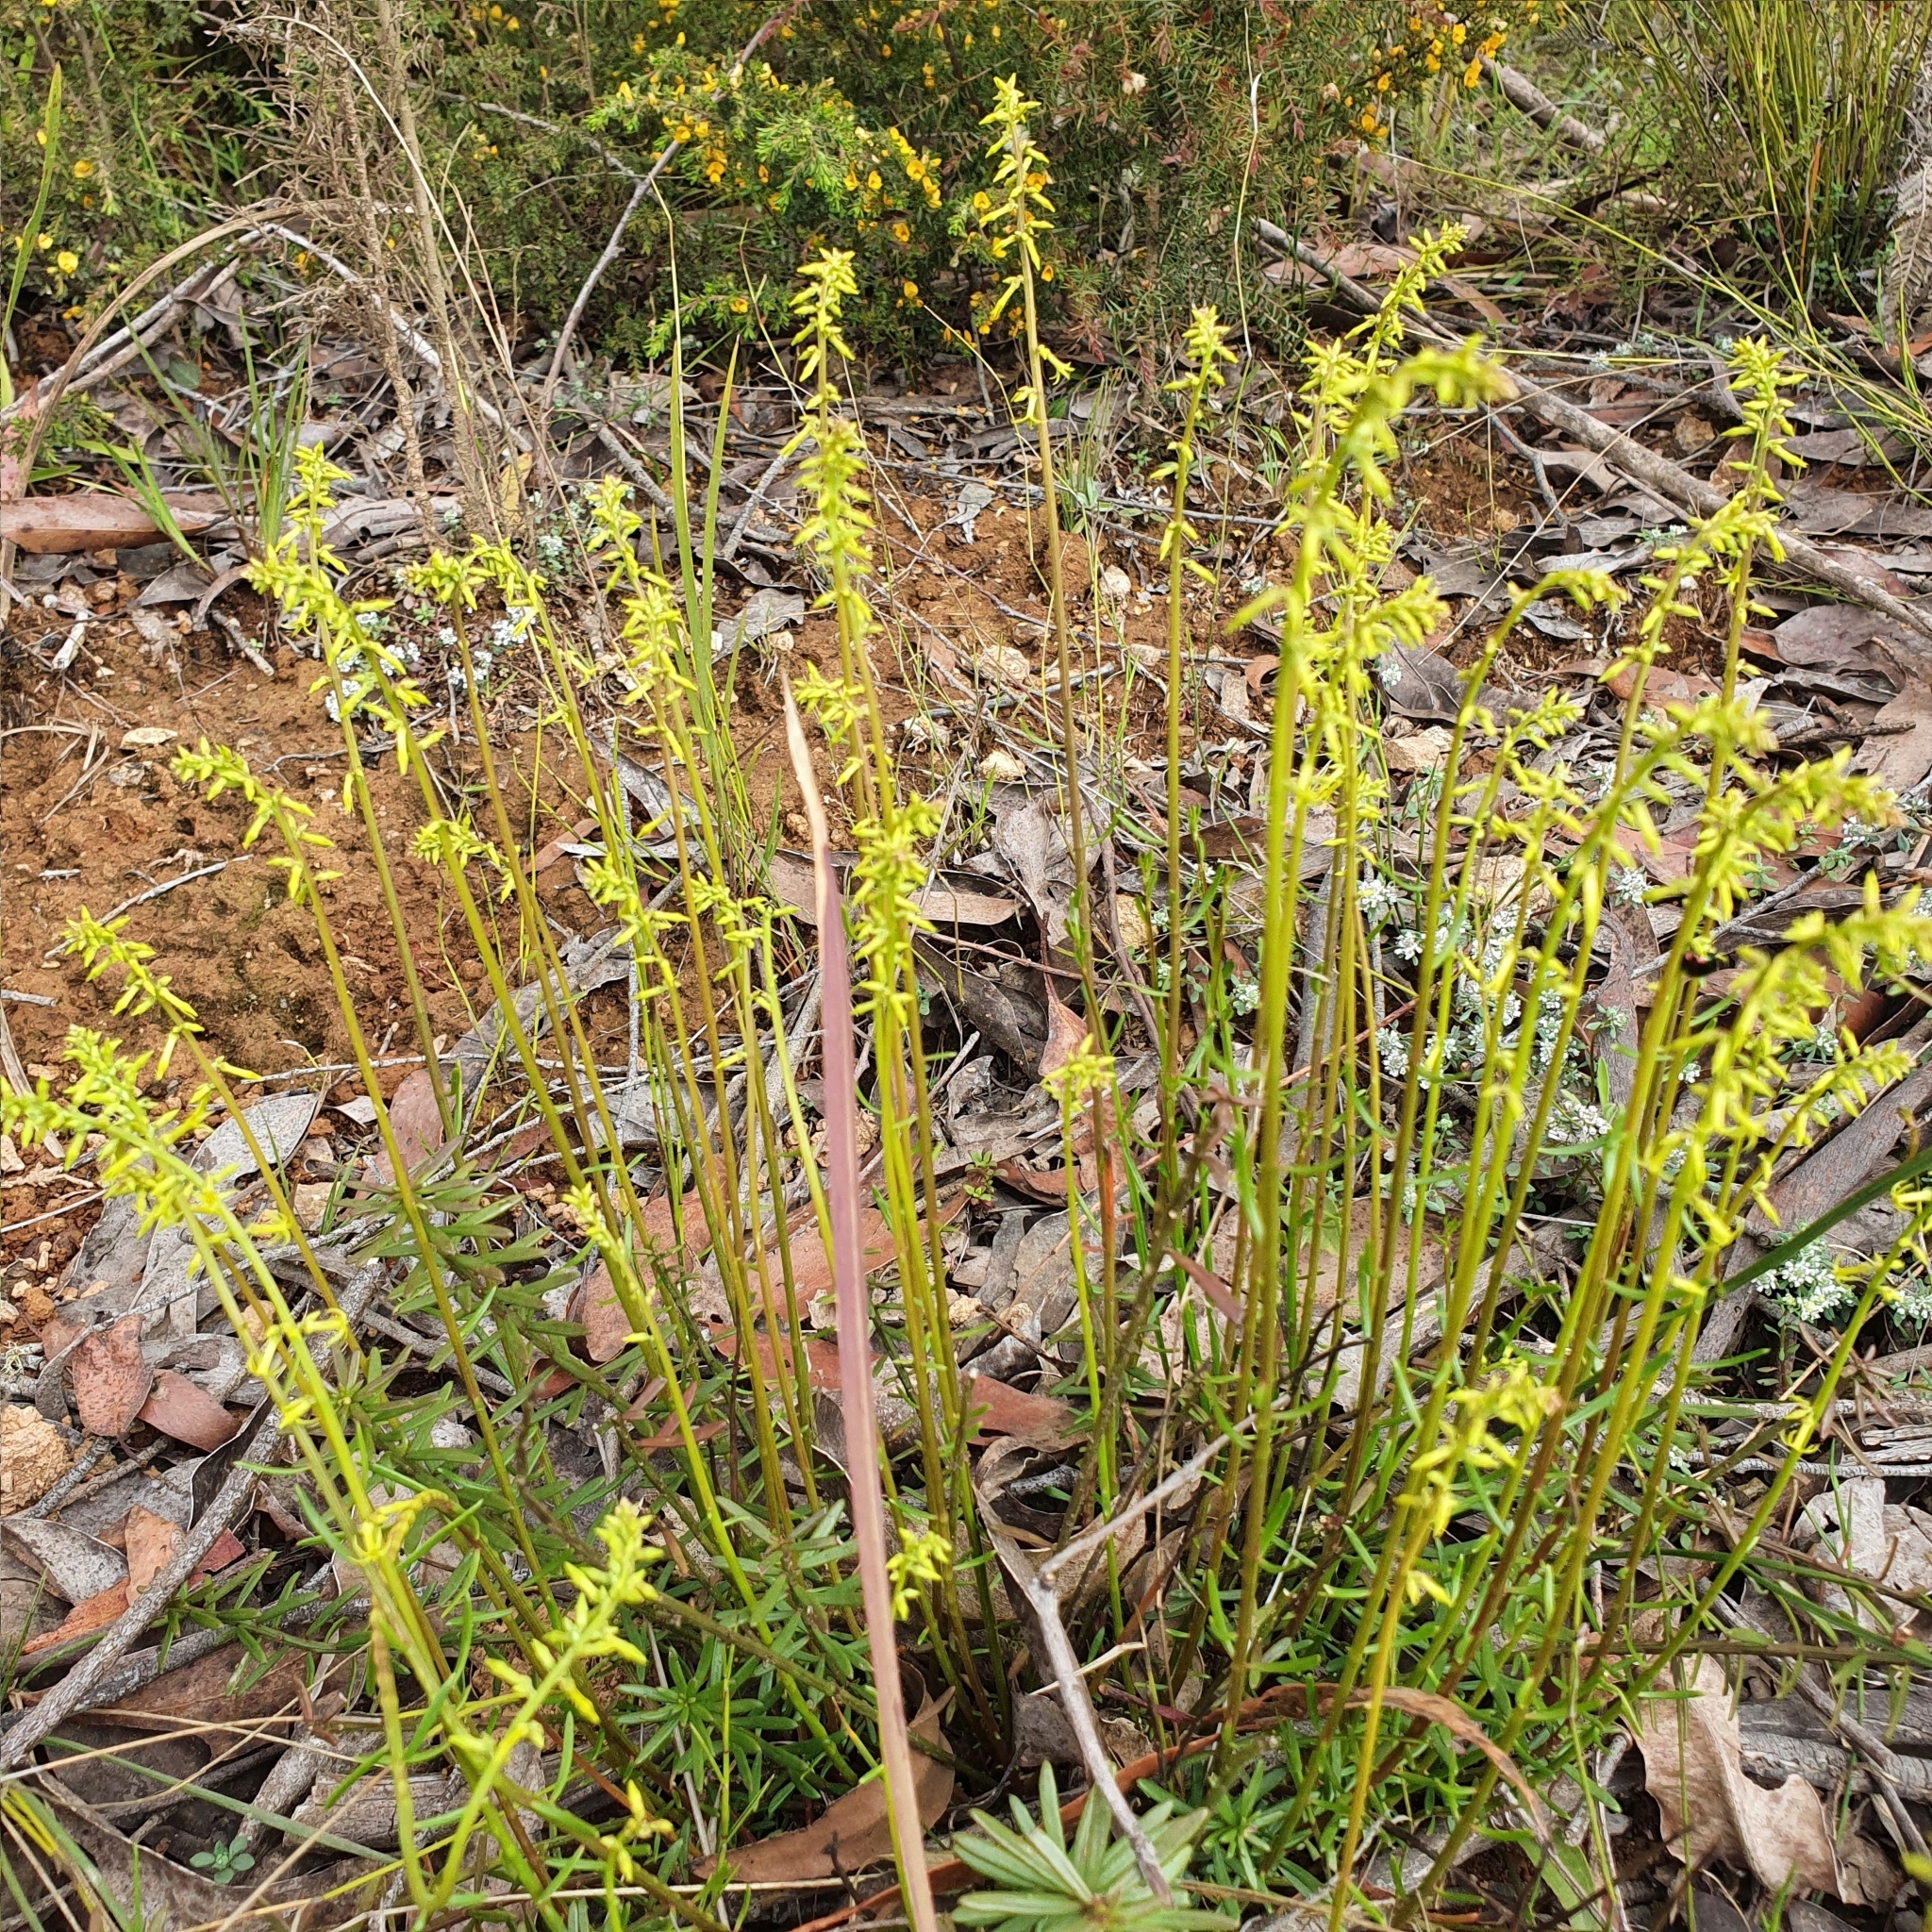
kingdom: Plantae
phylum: Tracheophyta
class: Magnoliopsida
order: Celastrales
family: Celastraceae
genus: Stackhousia
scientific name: Stackhousia viminea
